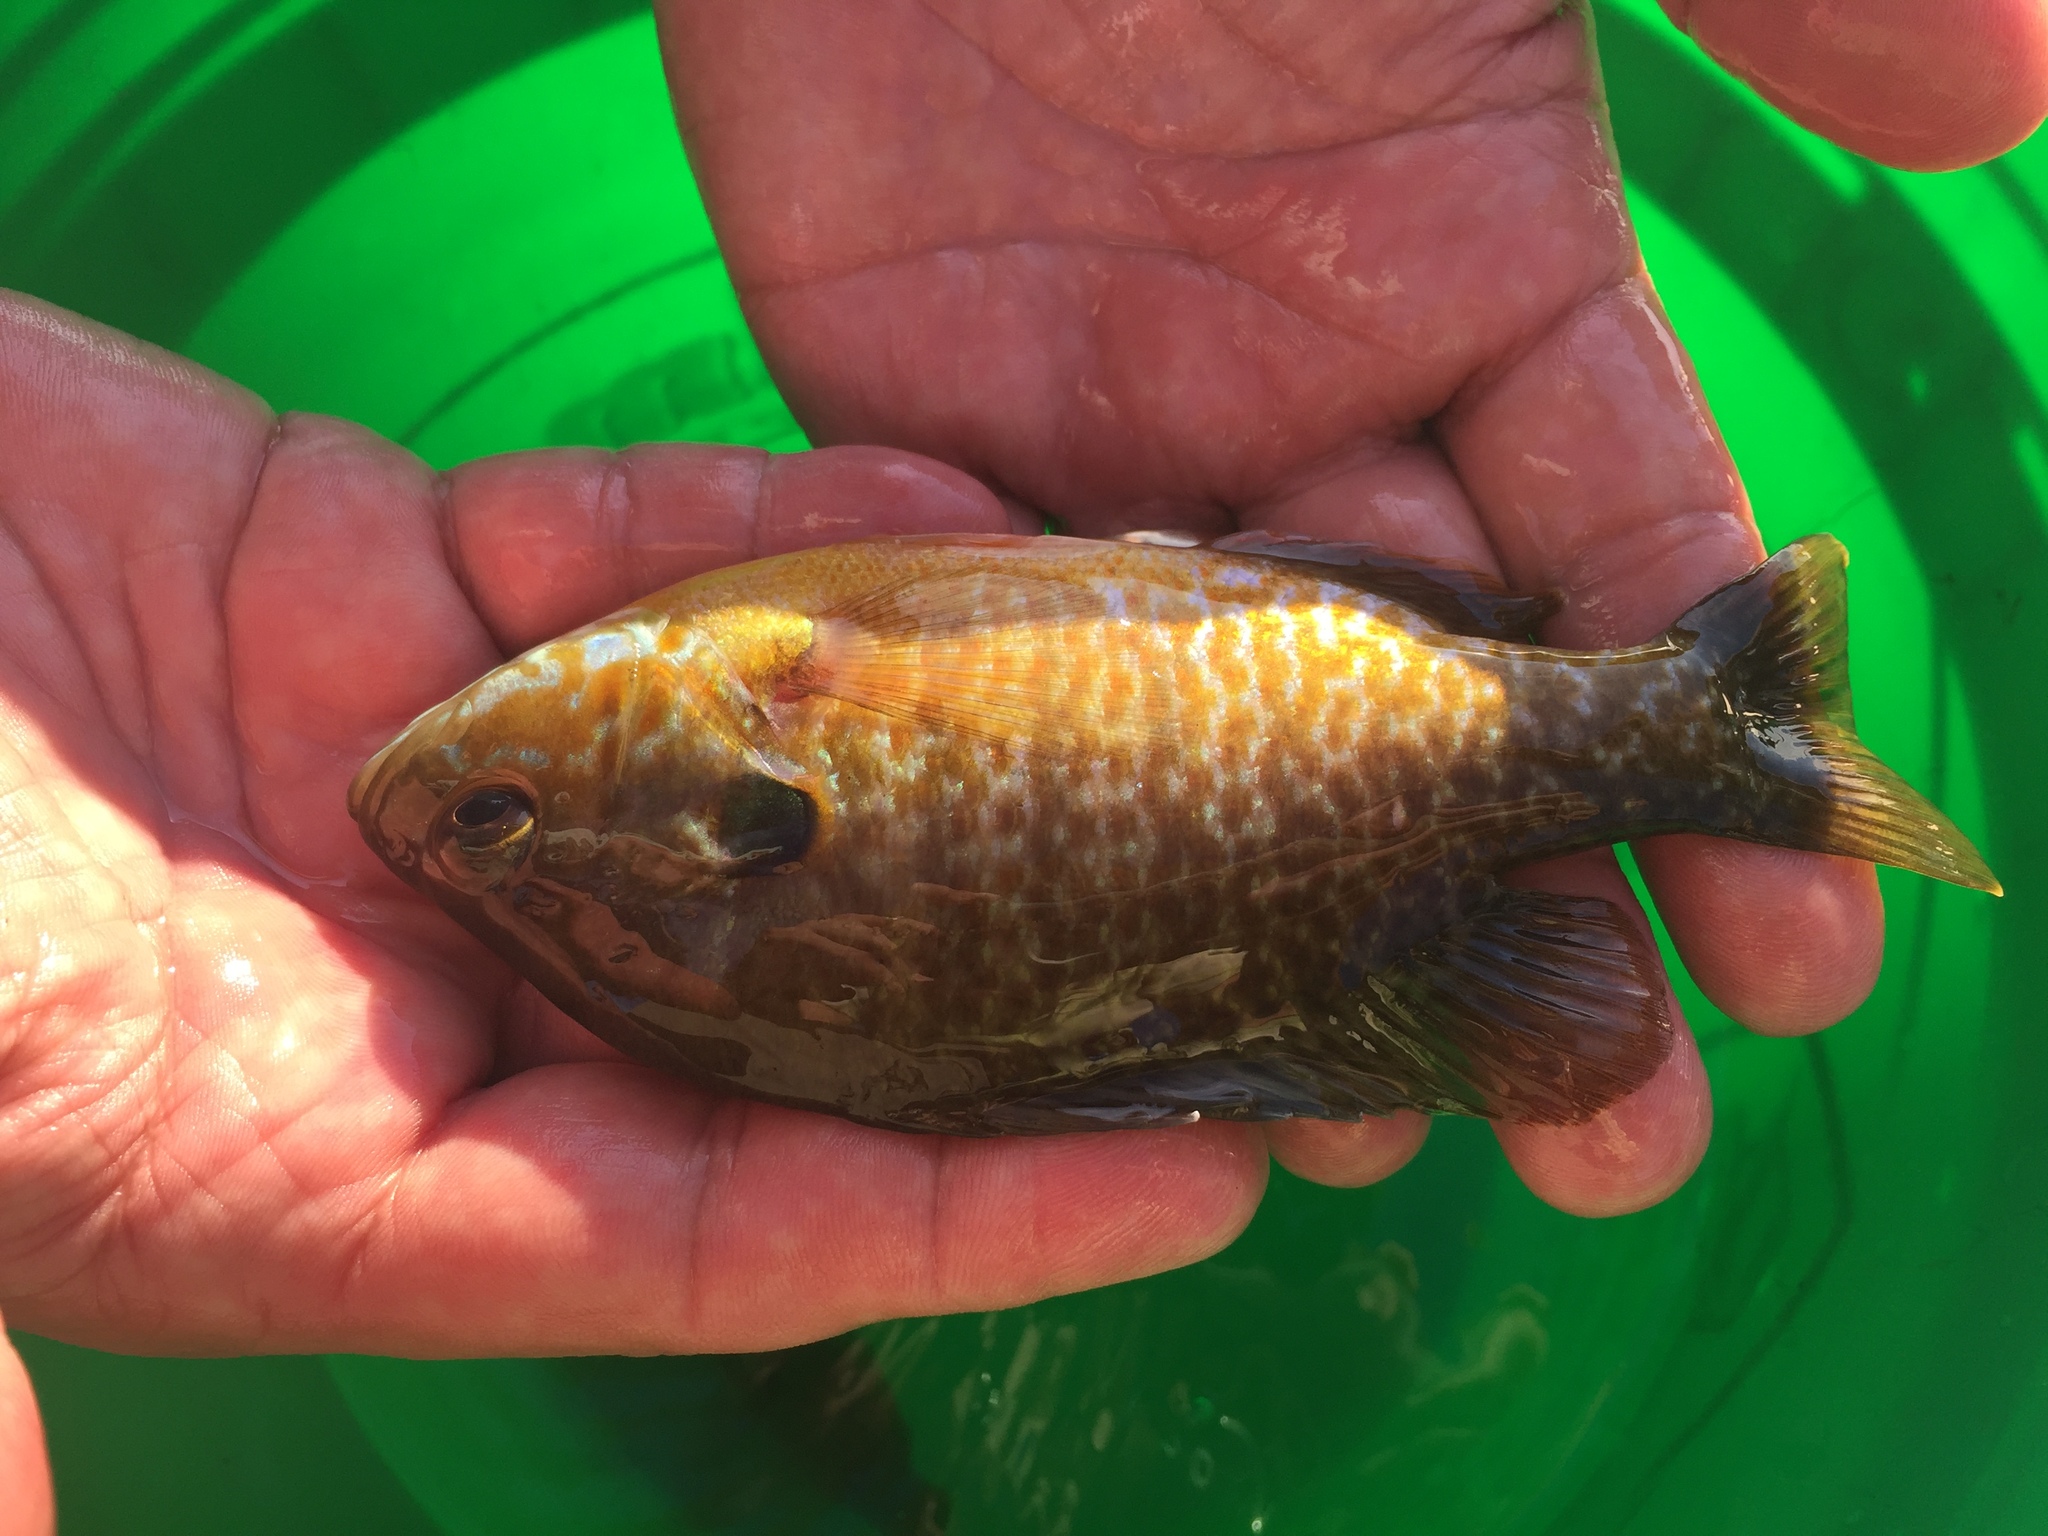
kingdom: Animalia
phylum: Chordata
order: Perciformes
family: Centrarchidae
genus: Lepomis
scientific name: Lepomis
